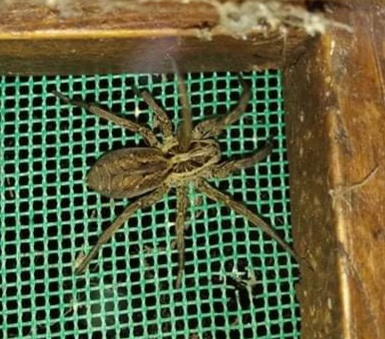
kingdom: Animalia
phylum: Arthropoda
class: Arachnida
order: Araneae
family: Lycosidae
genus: Hogna
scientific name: Hogna radiata
